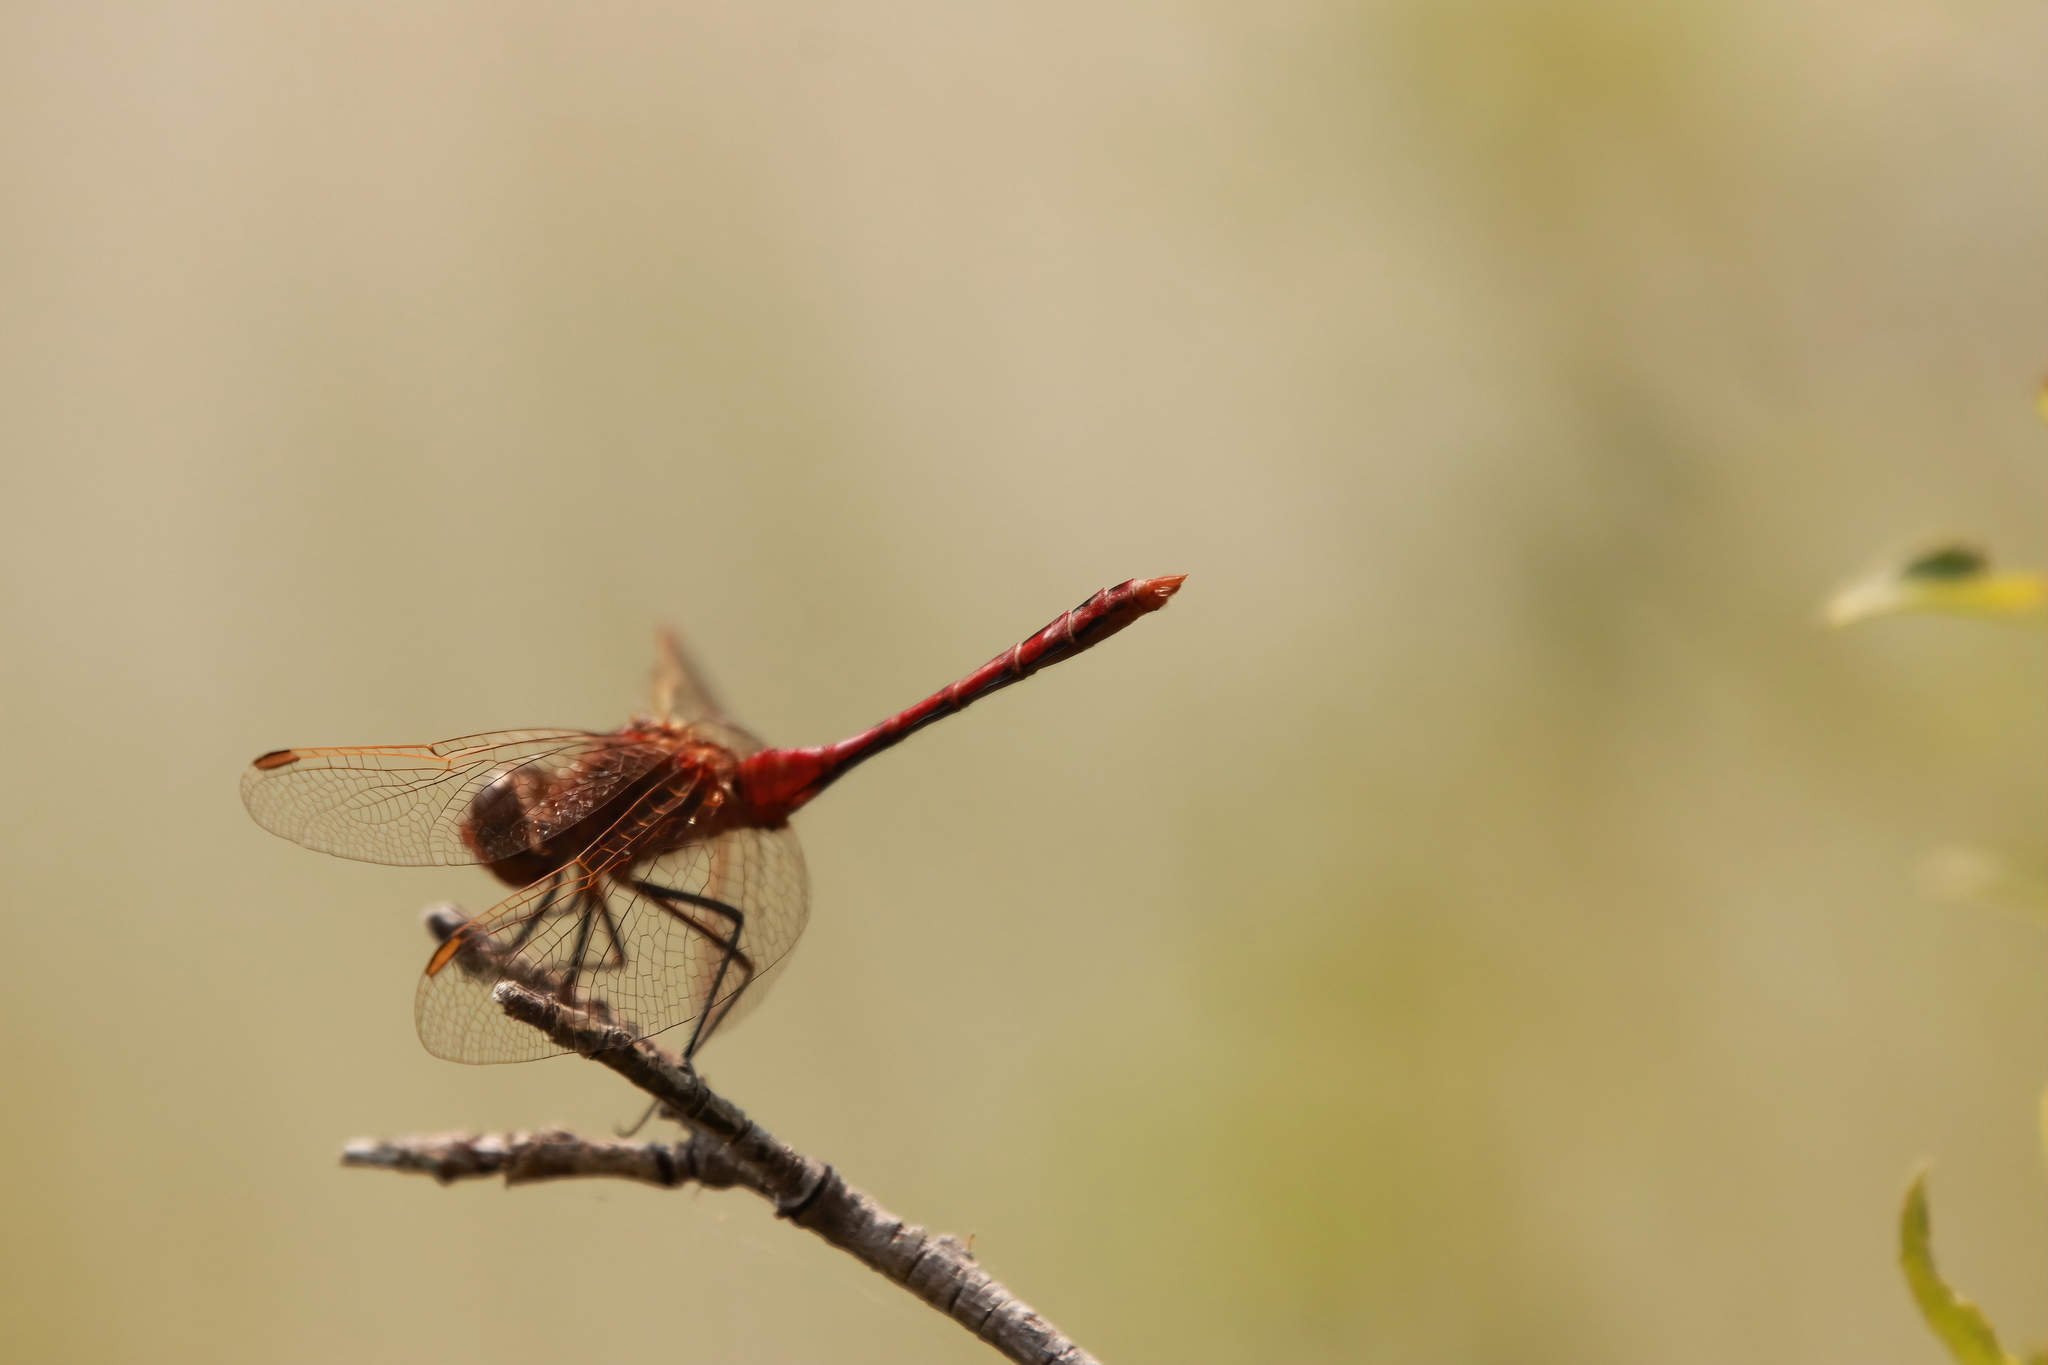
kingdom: Animalia
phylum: Arthropoda
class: Insecta
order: Odonata
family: Libellulidae
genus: Sympetrum
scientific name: Sympetrum costiferum
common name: Saffron-winged meadowhawk
